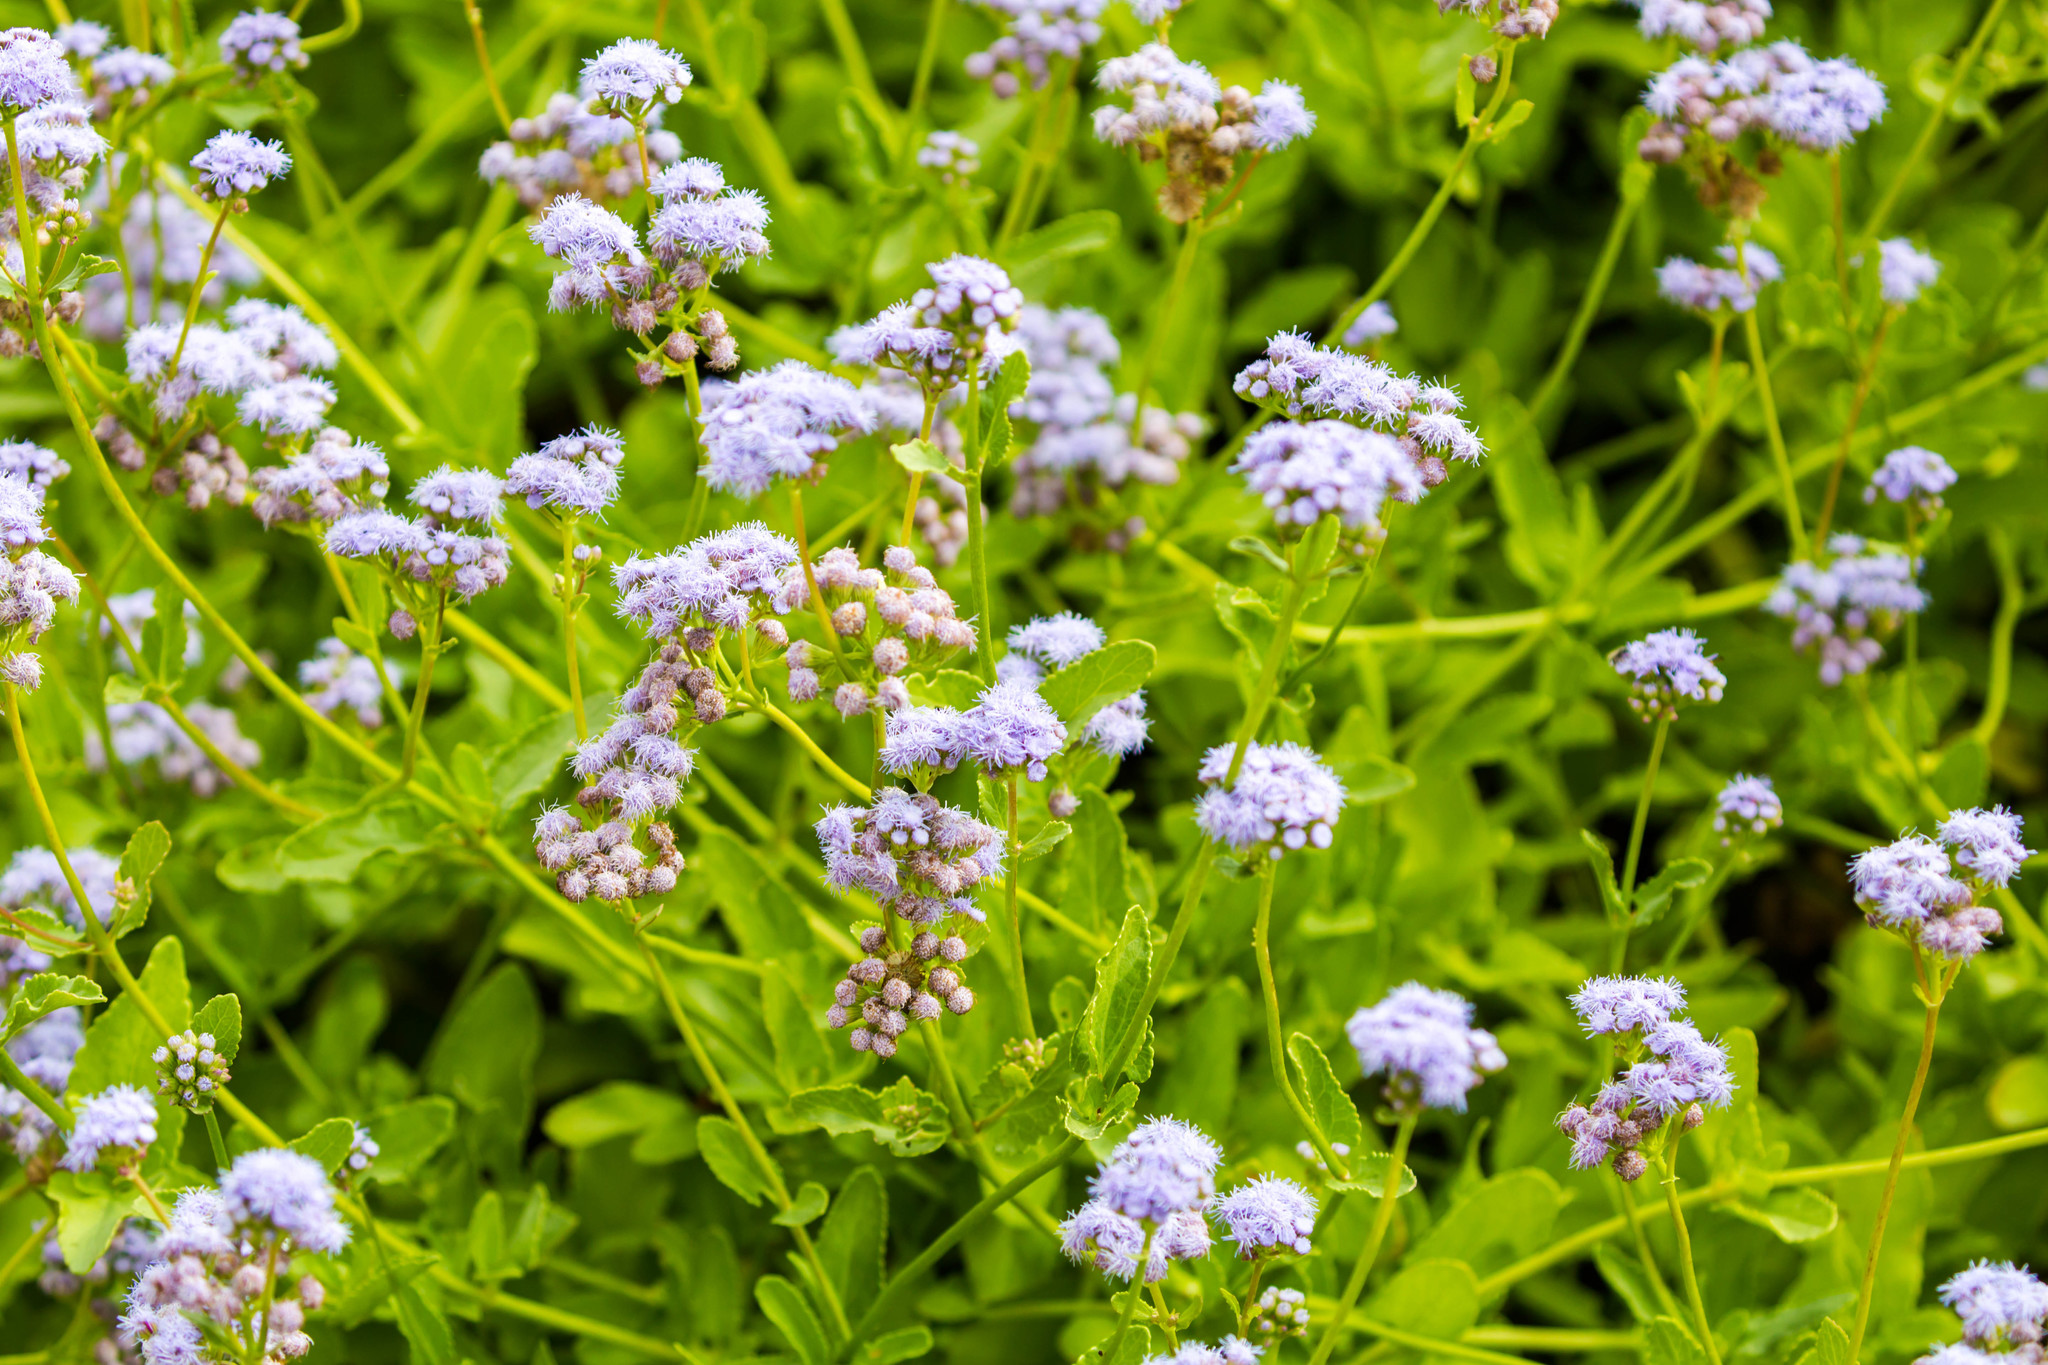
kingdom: Plantae
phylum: Tracheophyta
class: Magnoliopsida
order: Asterales
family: Asteraceae
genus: Conoclinium
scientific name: Conoclinium betonicifolium
